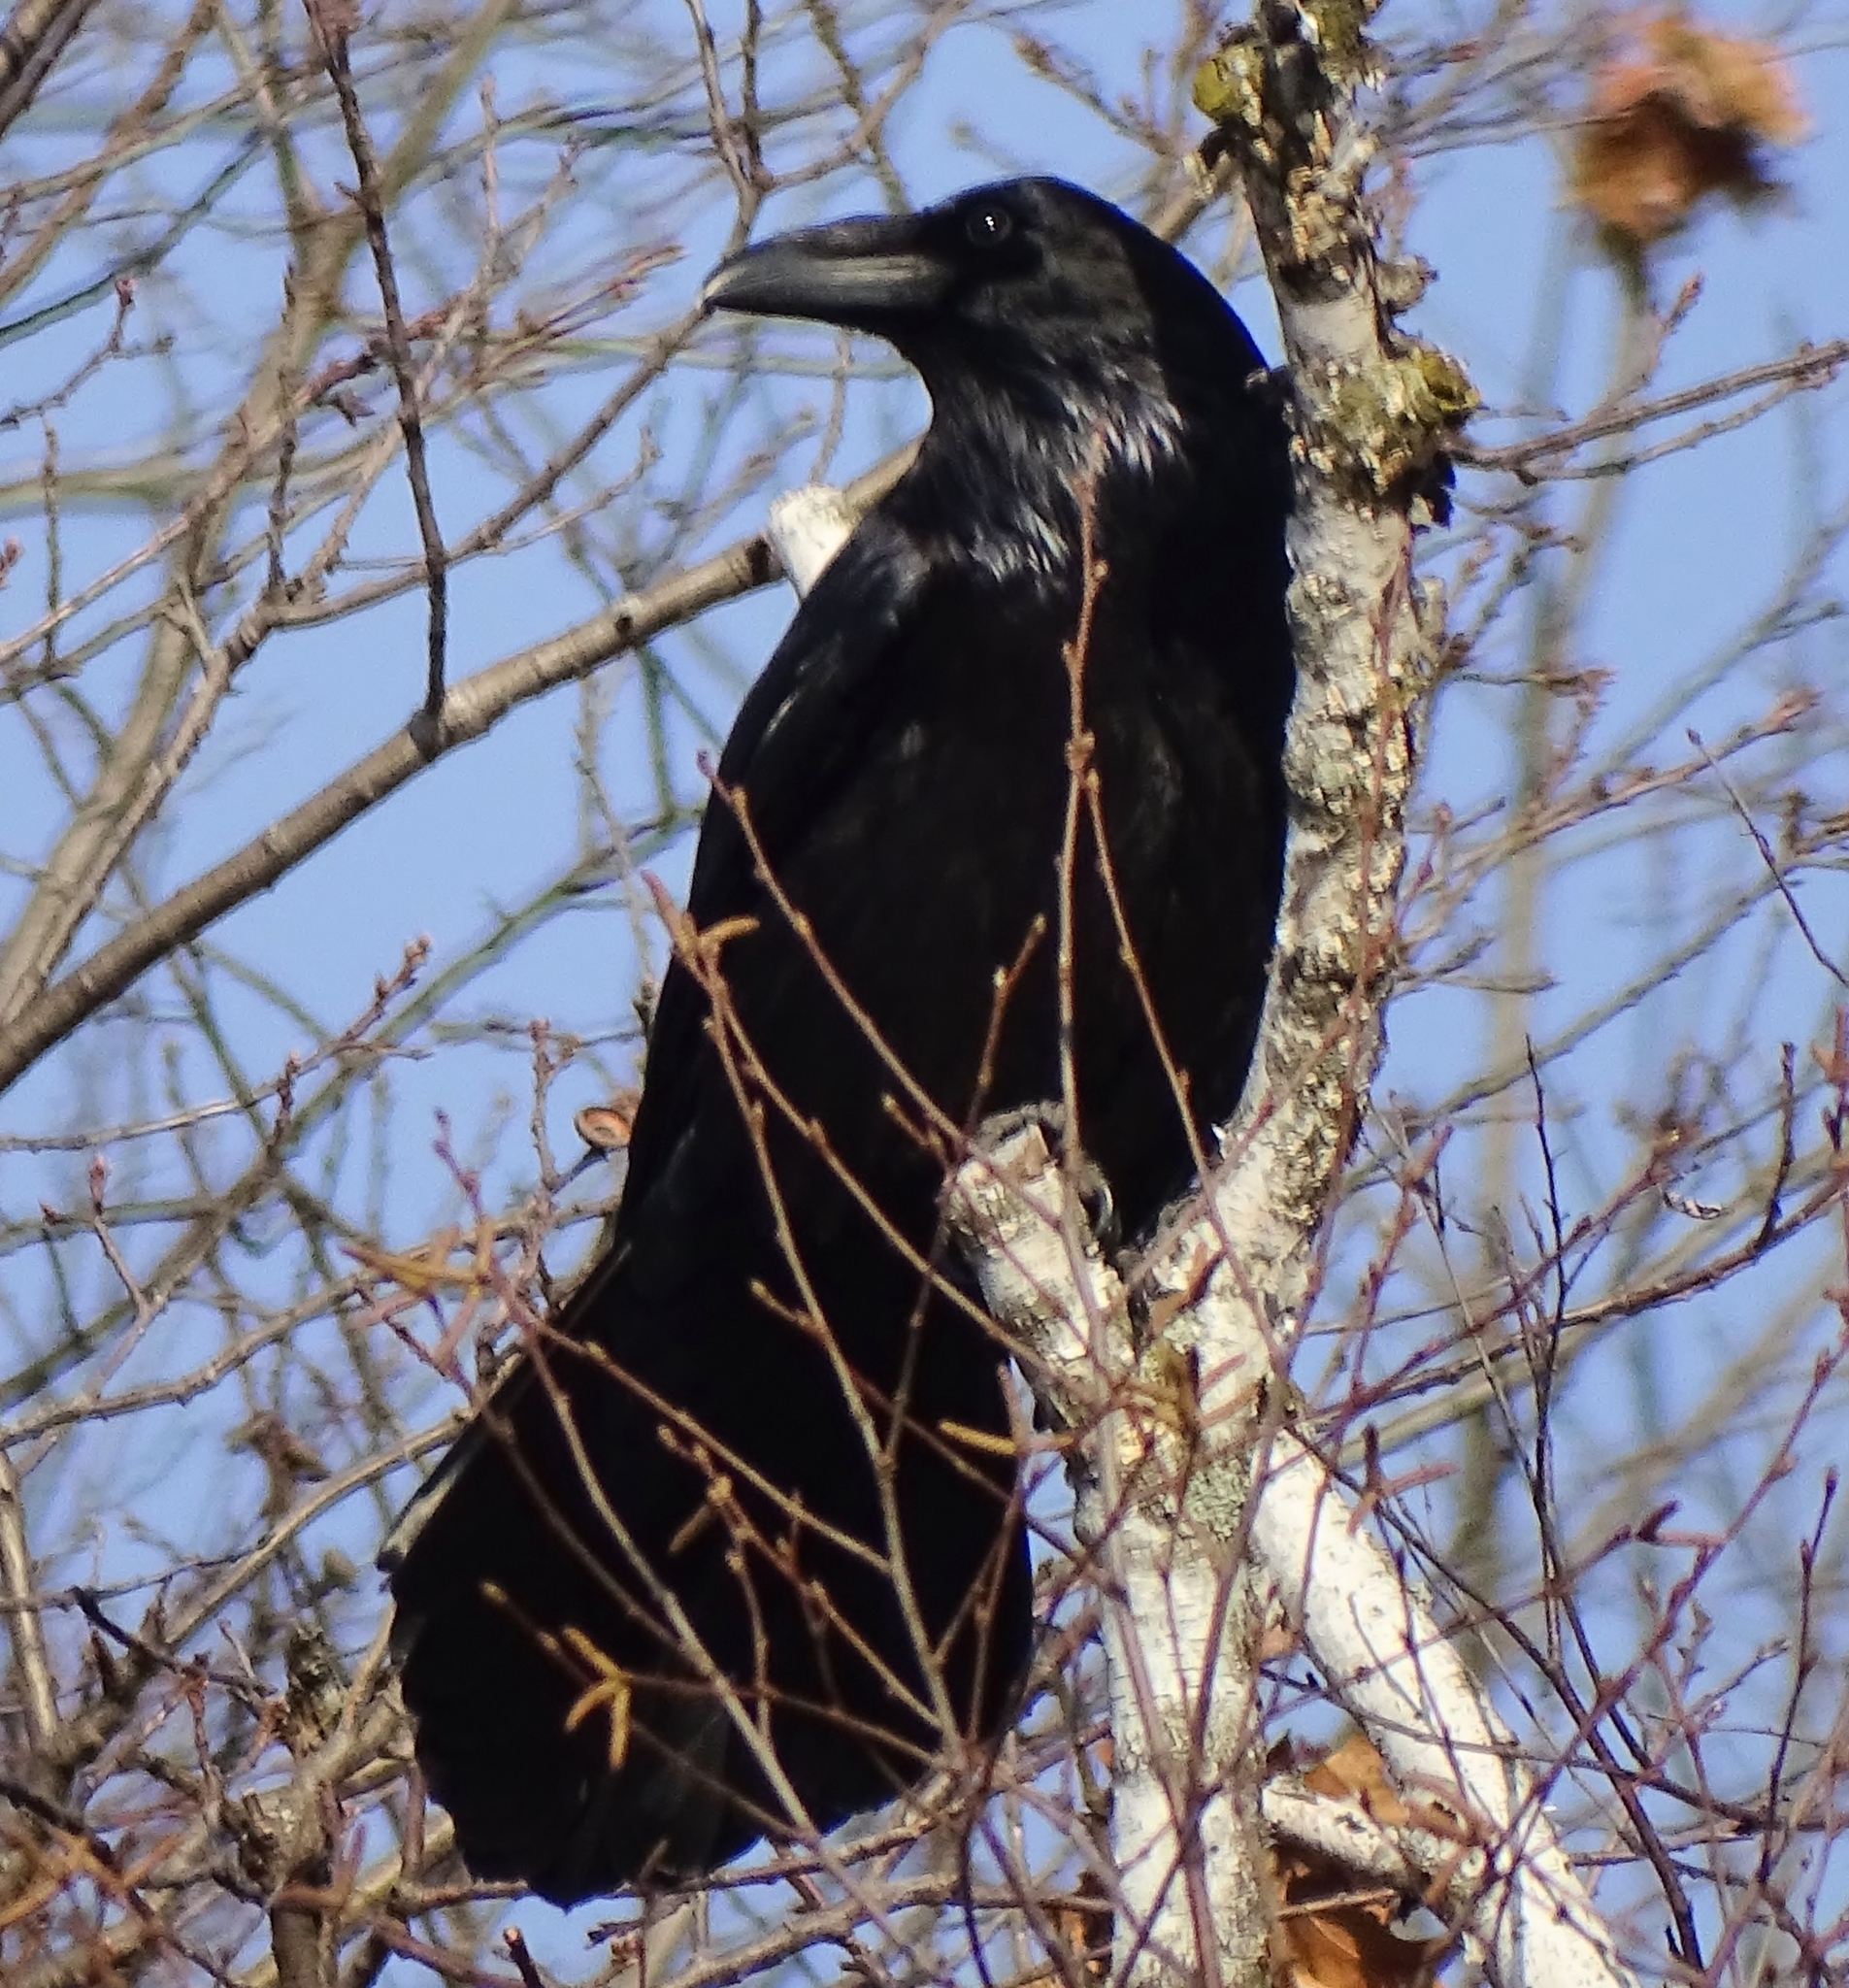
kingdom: Animalia
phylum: Chordata
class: Aves
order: Passeriformes
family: Corvidae
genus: Corvus
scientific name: Corvus corax
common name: Common raven
